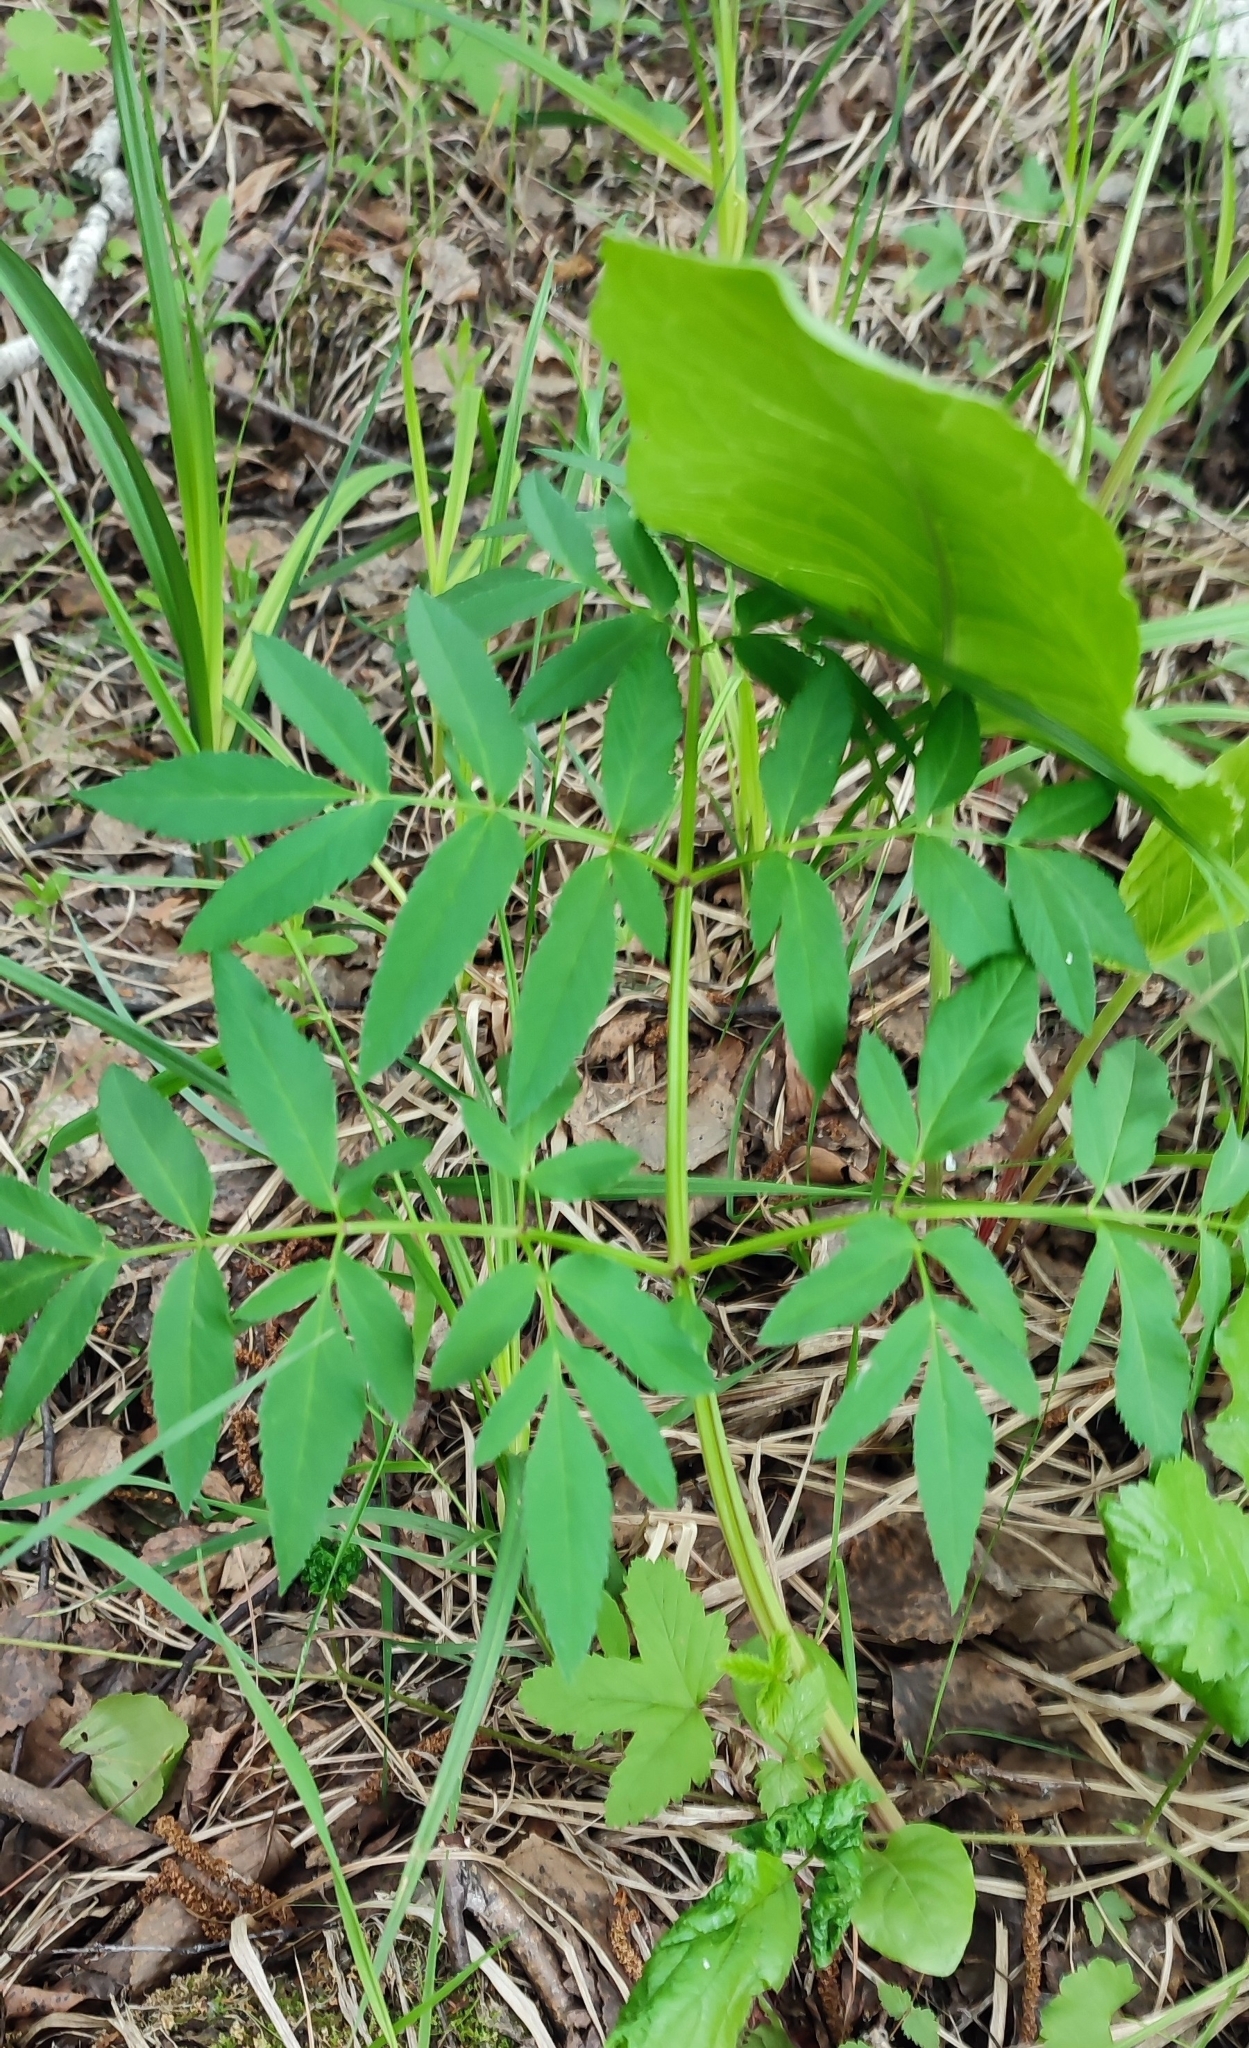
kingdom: Plantae
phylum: Tracheophyta
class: Magnoliopsida
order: Apiales
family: Apiaceae
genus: Angelica
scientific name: Angelica sylvestris
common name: Wild angelica
